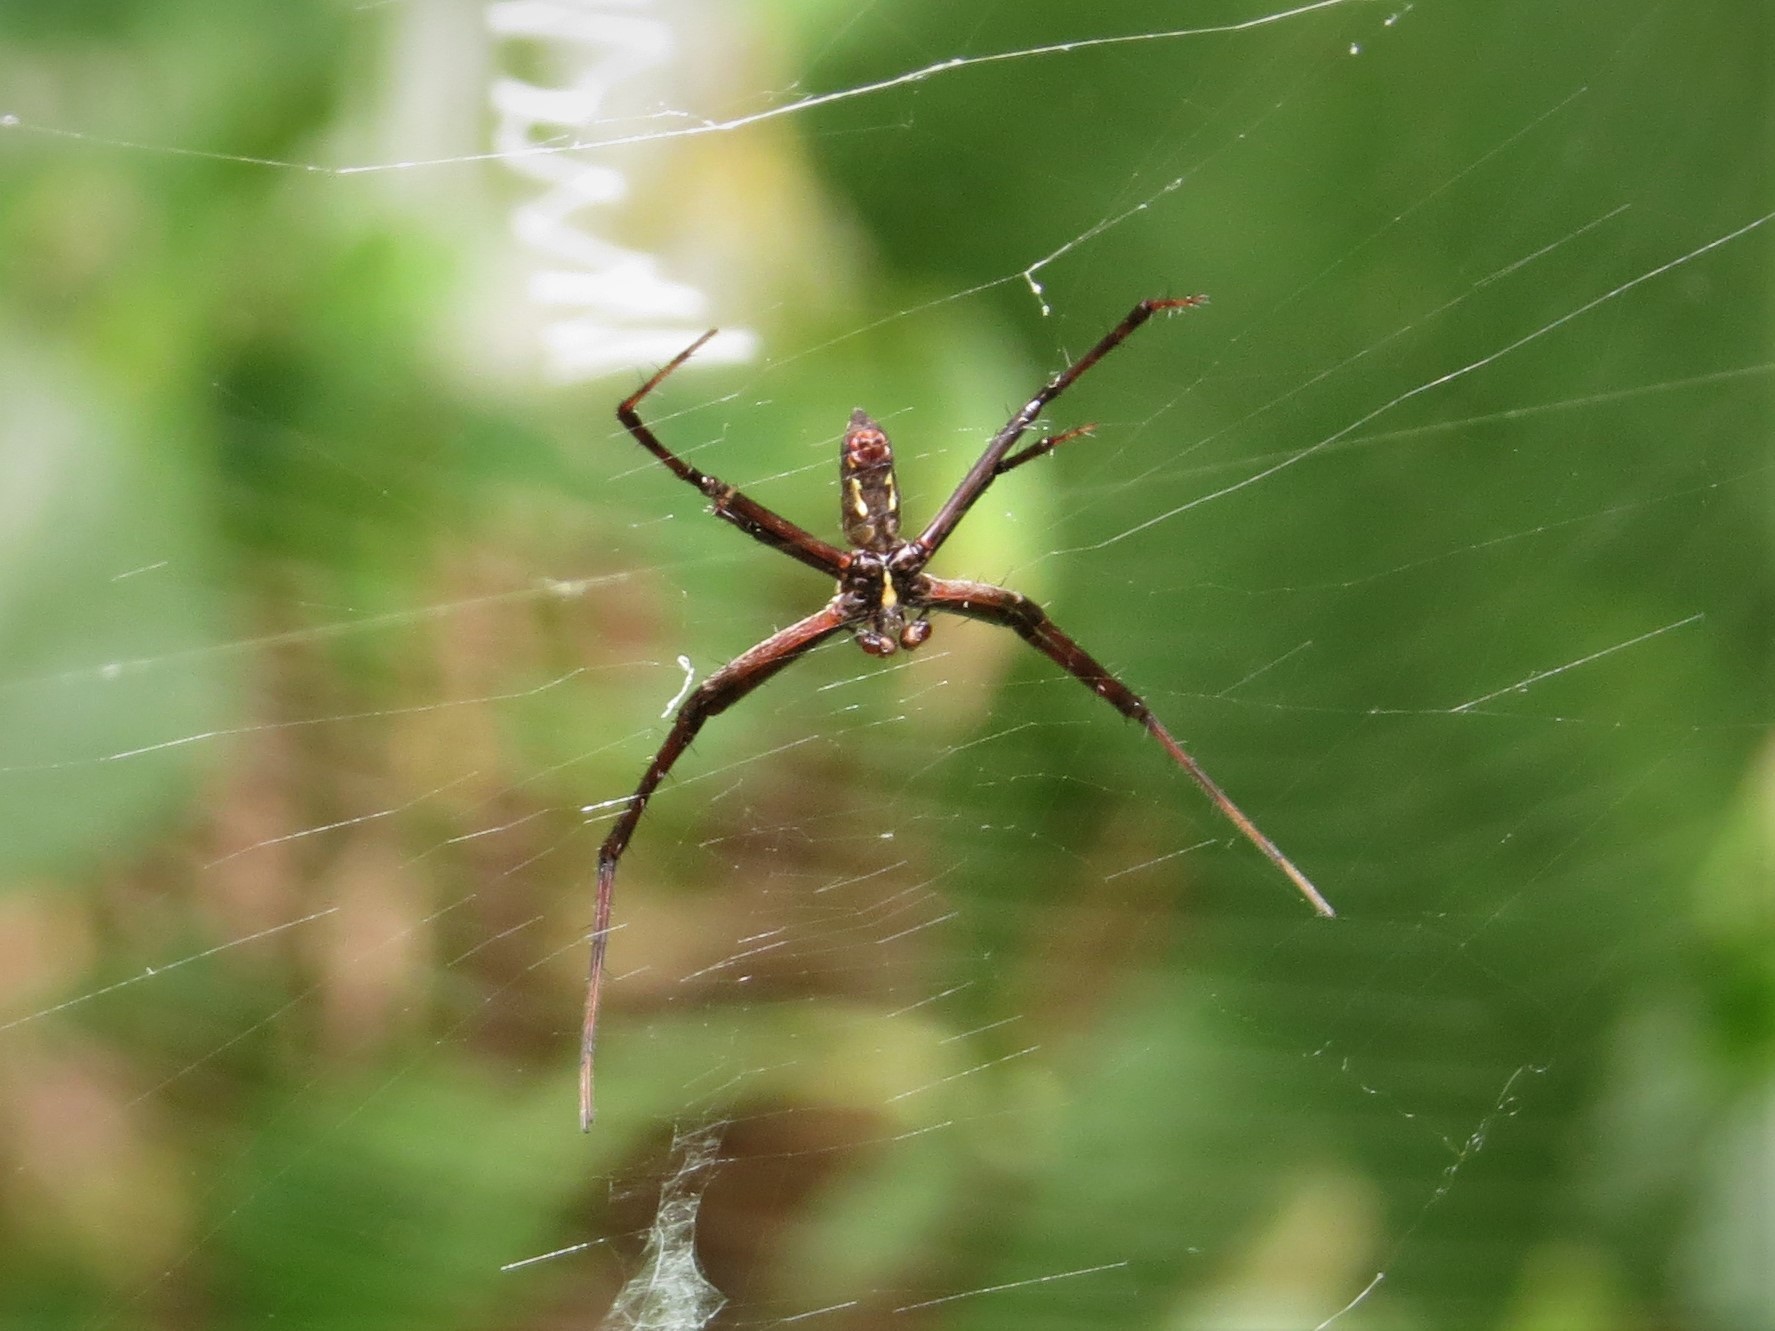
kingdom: Animalia
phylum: Arthropoda
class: Arachnida
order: Araneae
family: Araneidae
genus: Argiope
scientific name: Argiope aurantia
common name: Orb weavers
